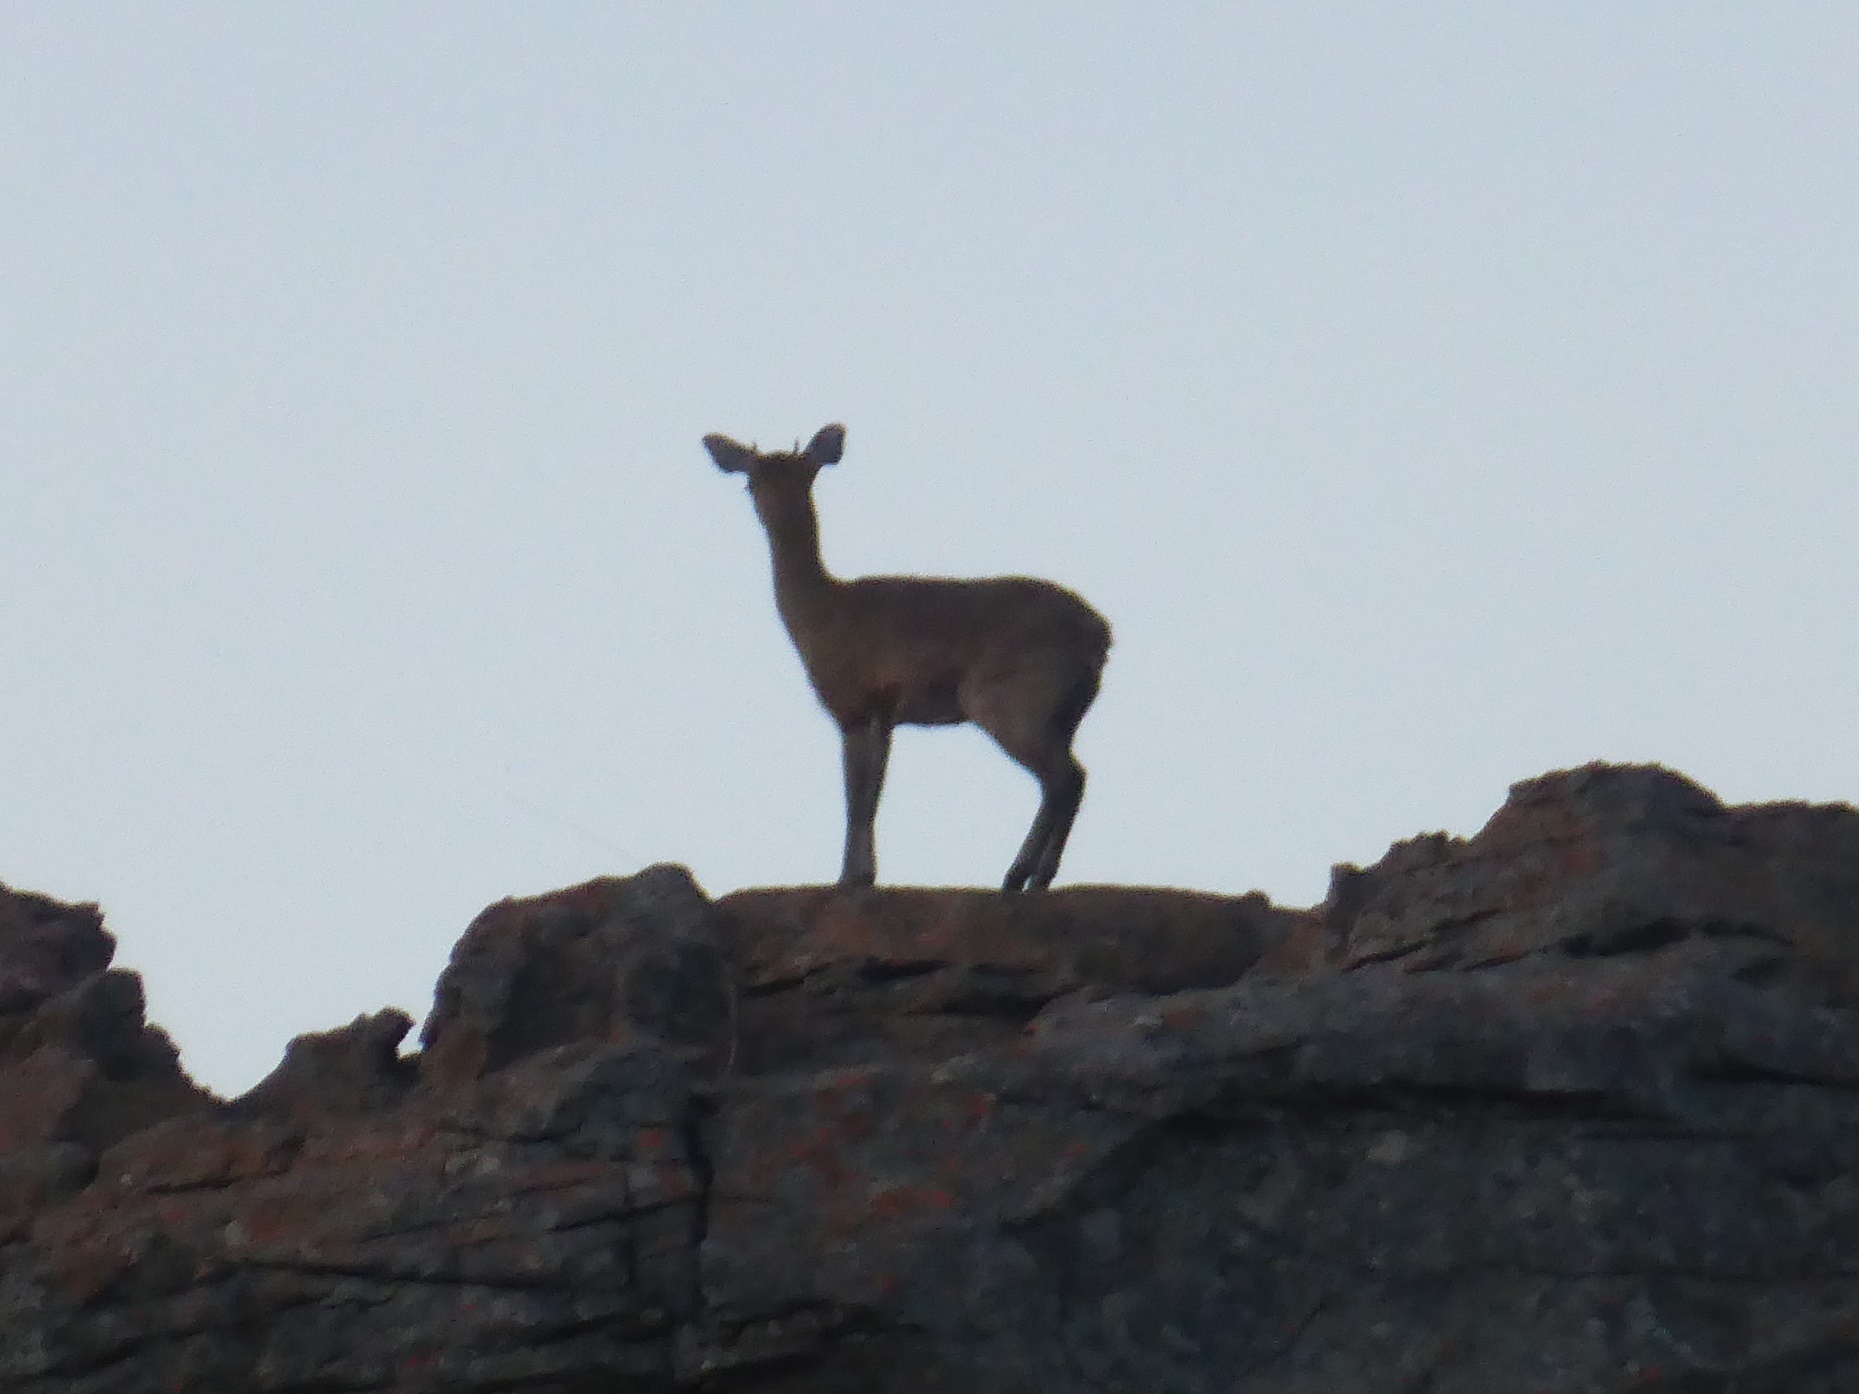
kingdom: Animalia
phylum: Chordata
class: Mammalia
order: Artiodactyla
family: Bovidae
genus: Oreotragus
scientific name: Oreotragus oreotragus
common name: Klipspringer
